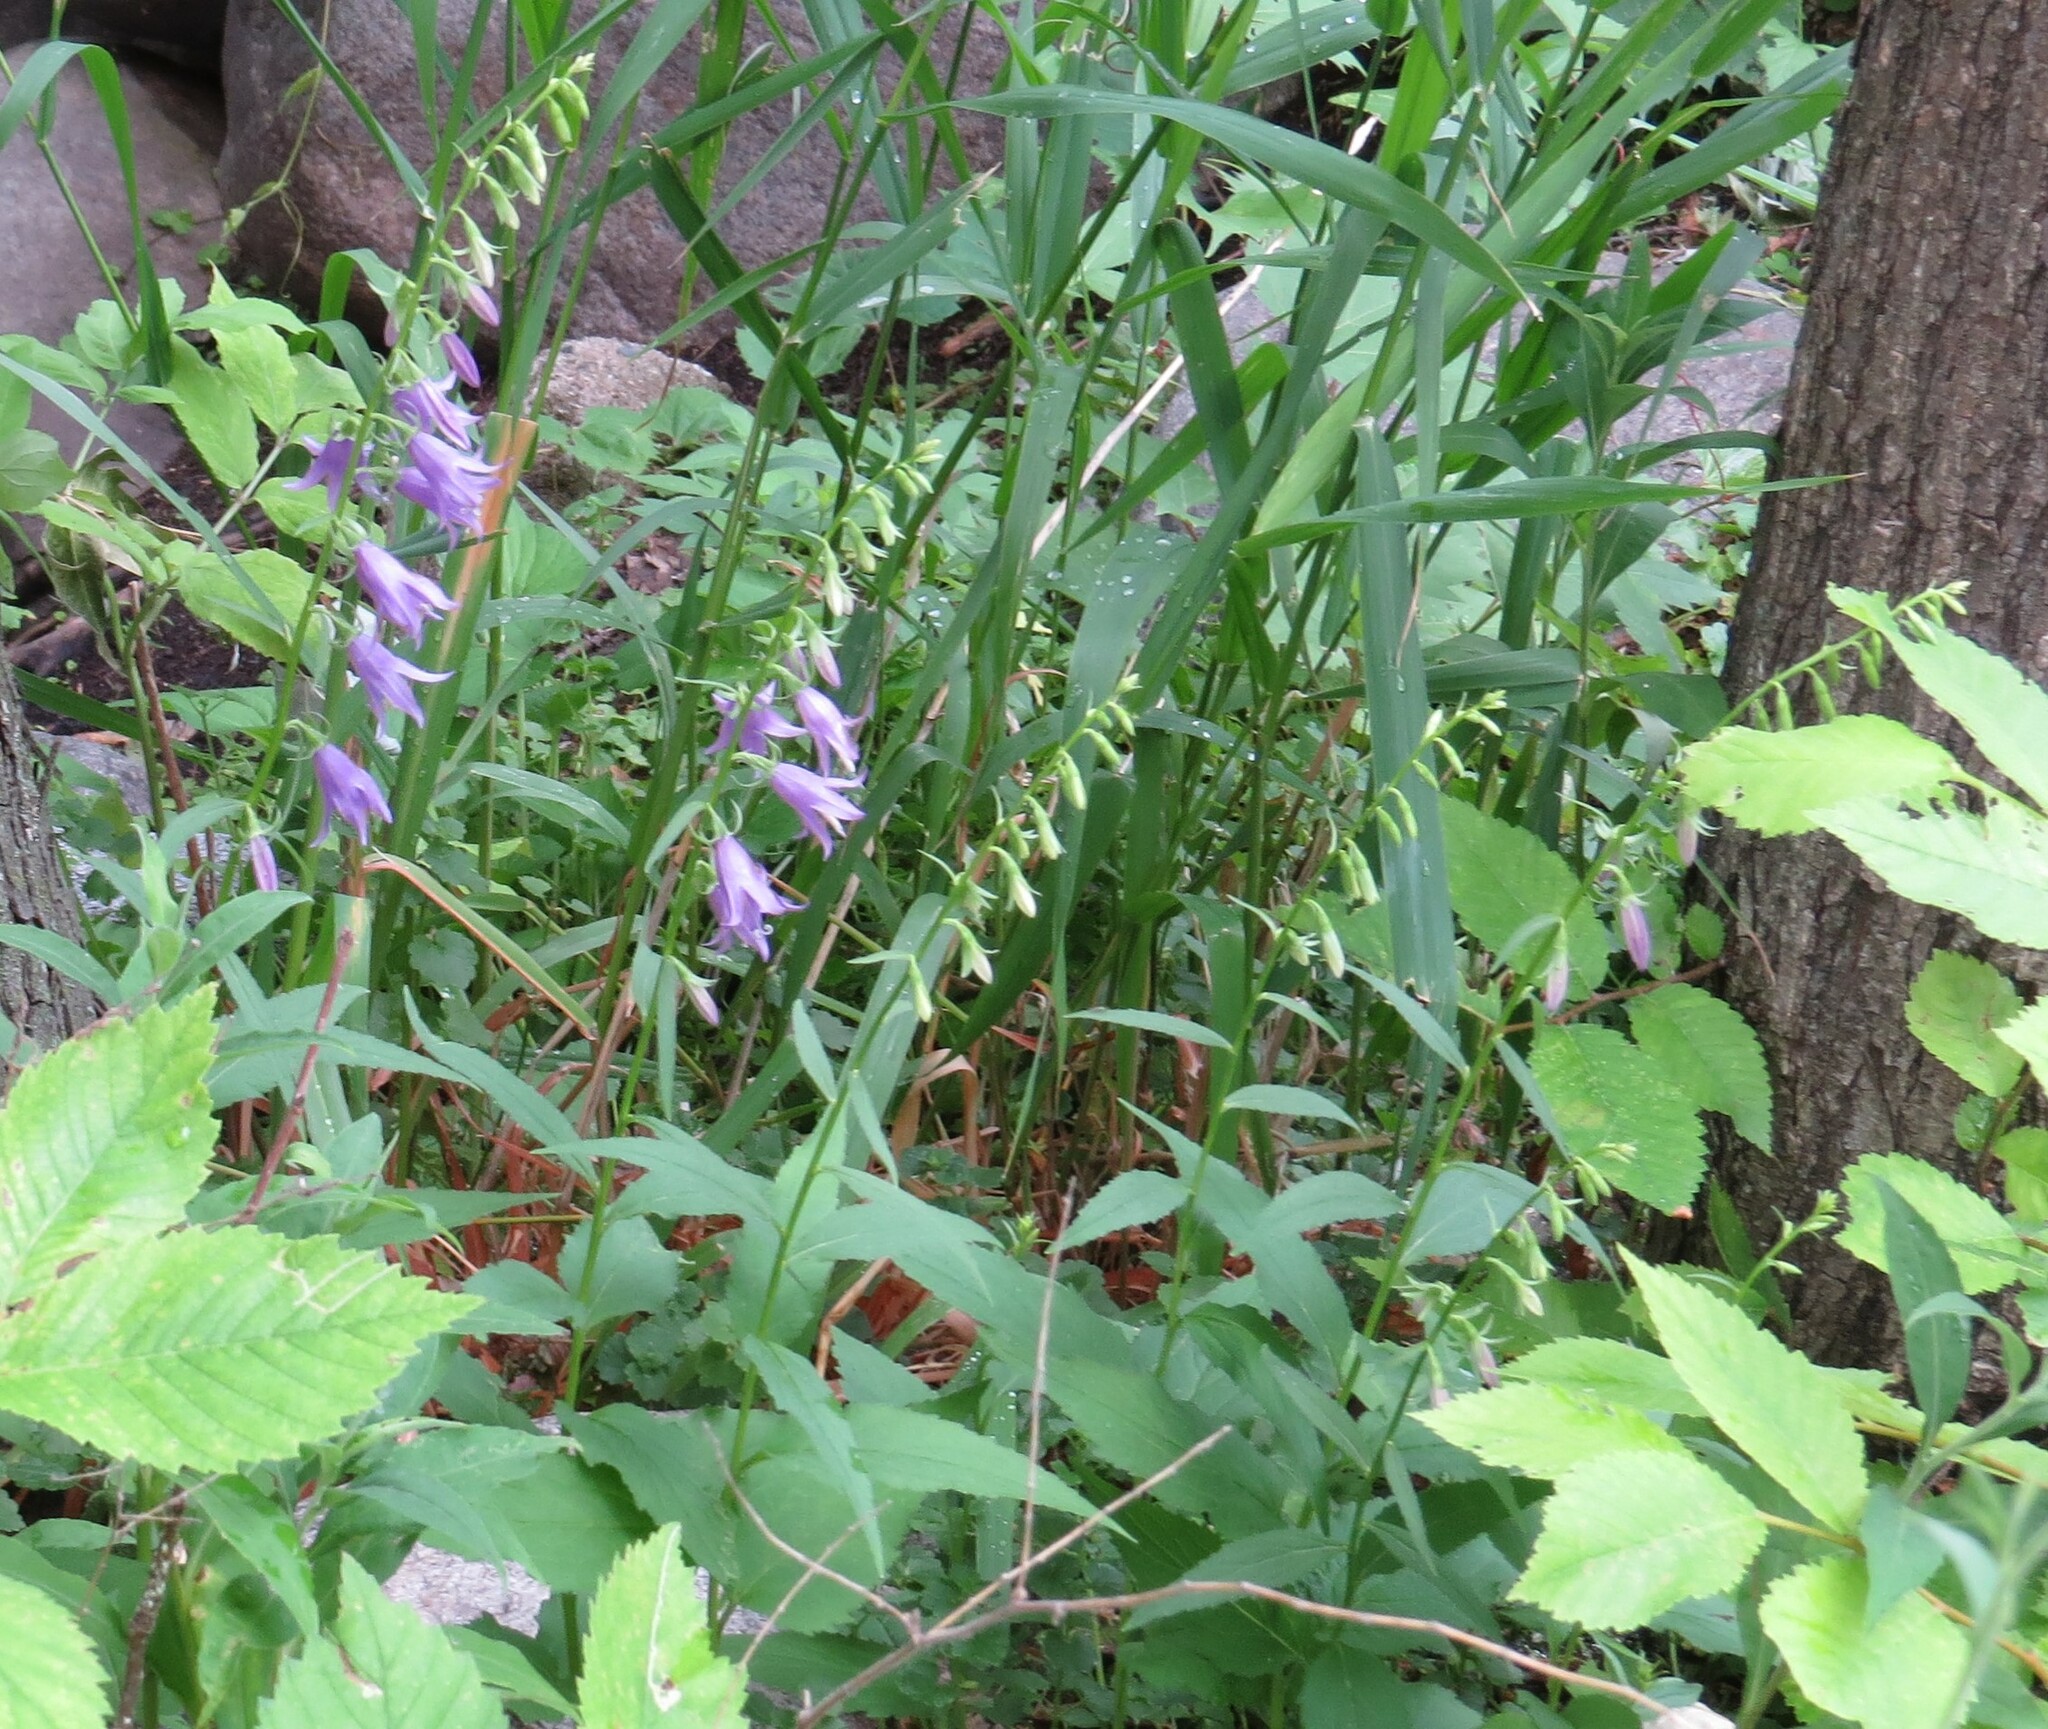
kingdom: Plantae
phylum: Tracheophyta
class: Magnoliopsida
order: Asterales
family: Campanulaceae
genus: Campanula
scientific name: Campanula rapunculoides
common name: Creeping bellflower
